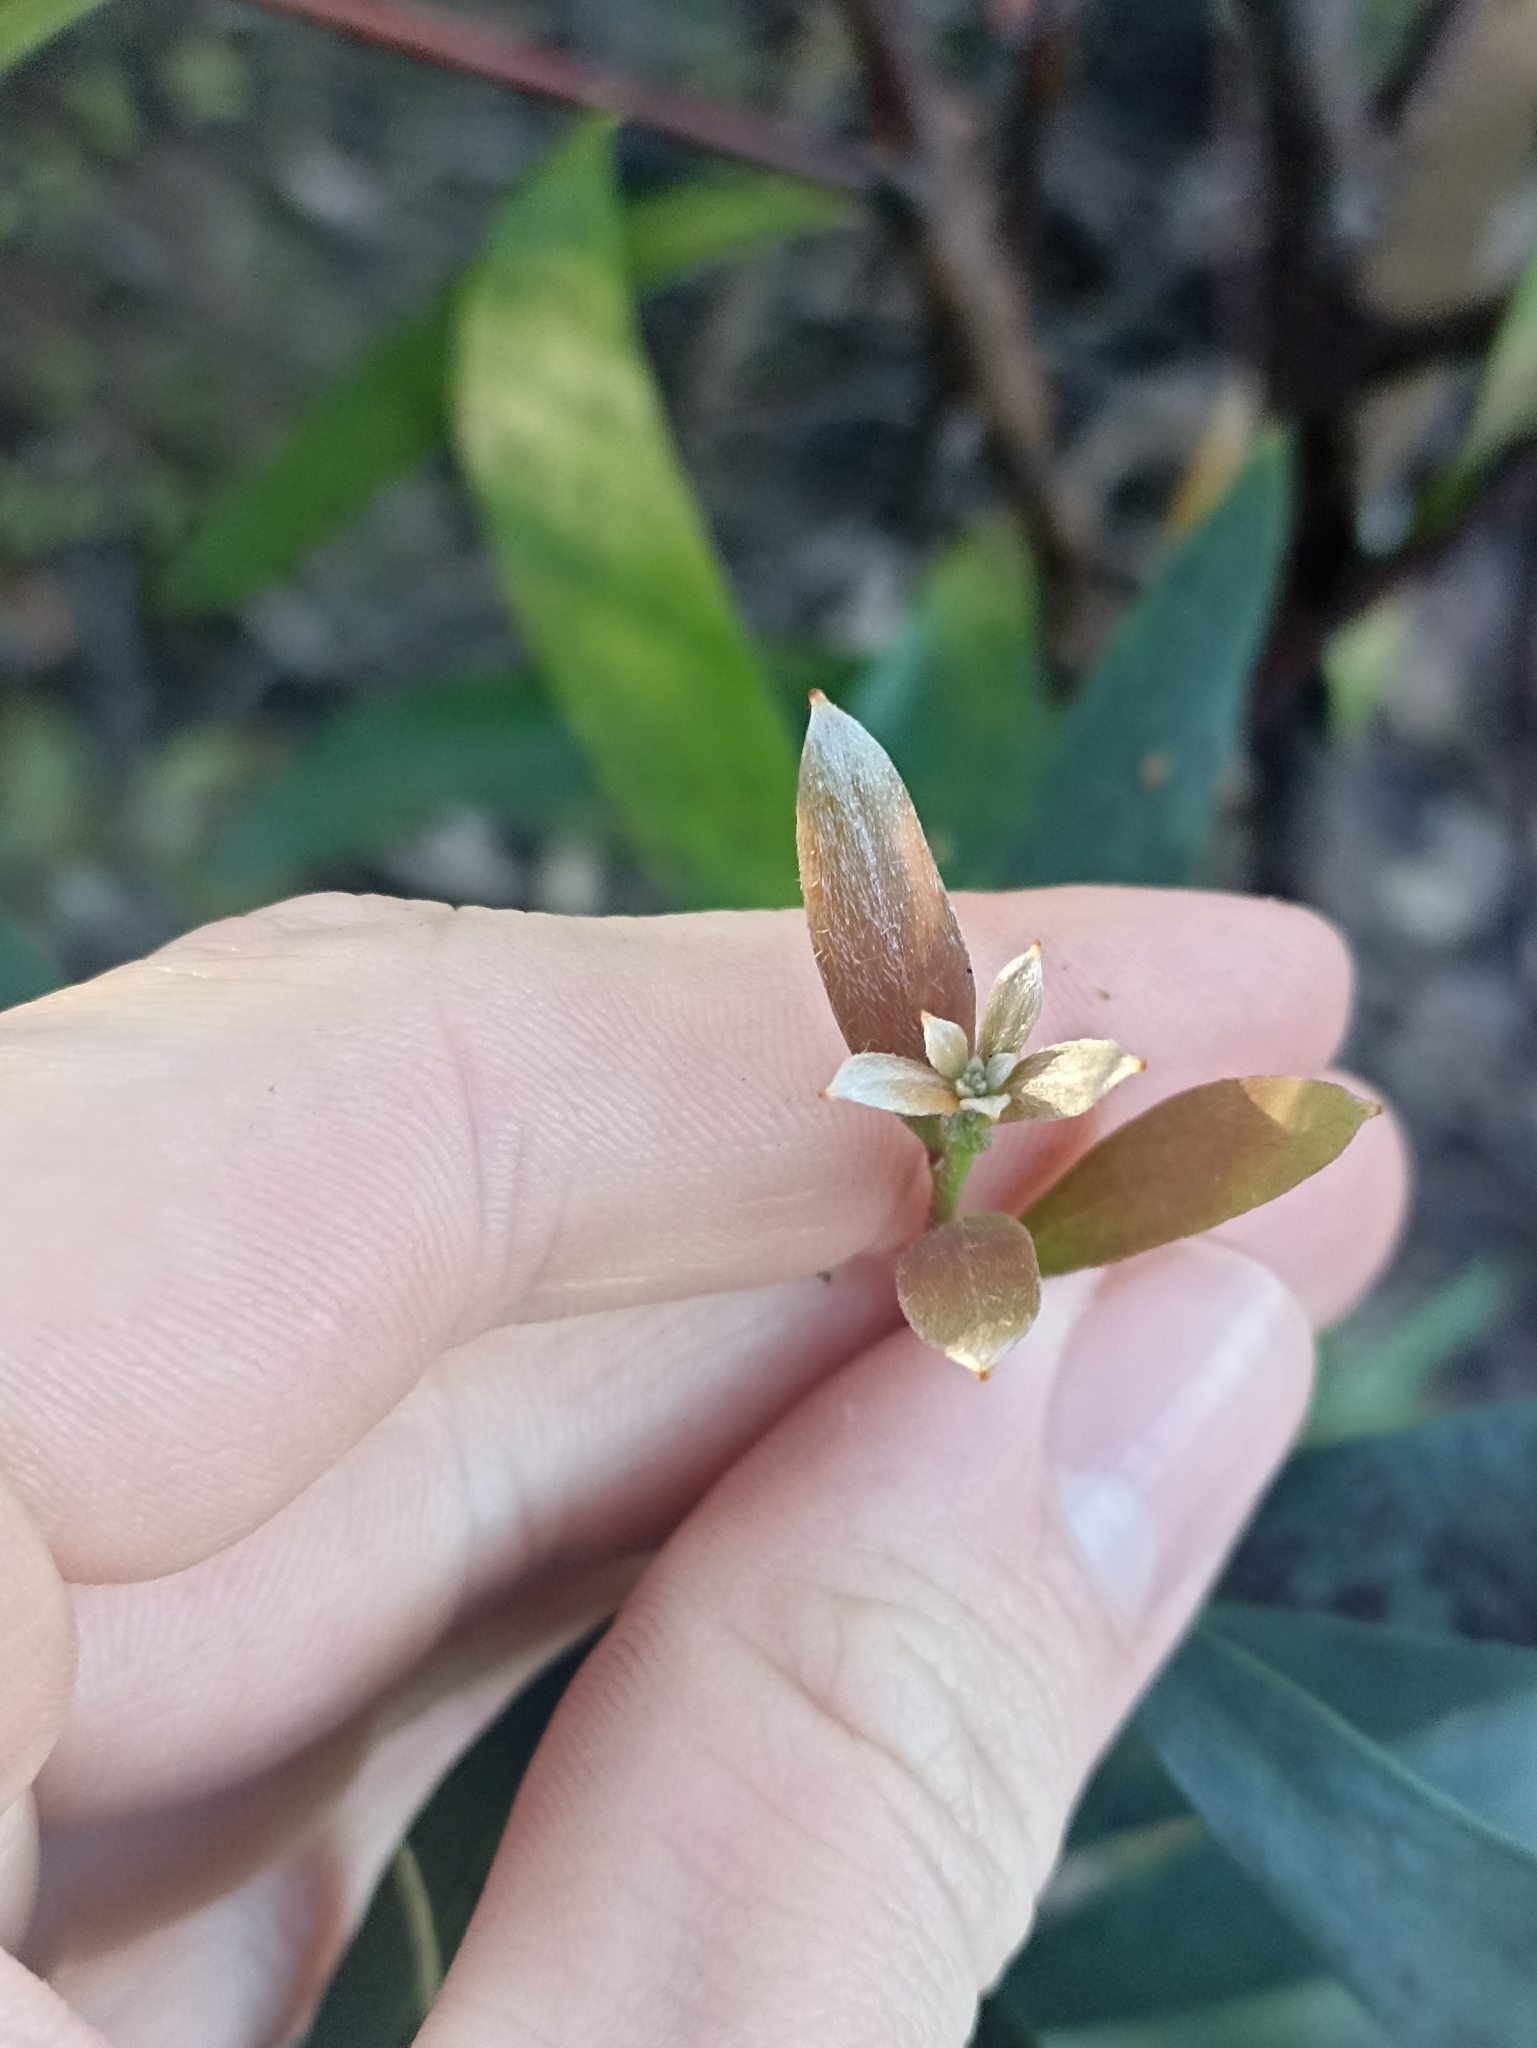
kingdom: Plantae
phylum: Tracheophyta
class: Magnoliopsida
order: Proteales
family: Proteaceae
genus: Hakea
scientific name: Hakea salicifolia
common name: Willow hakea
